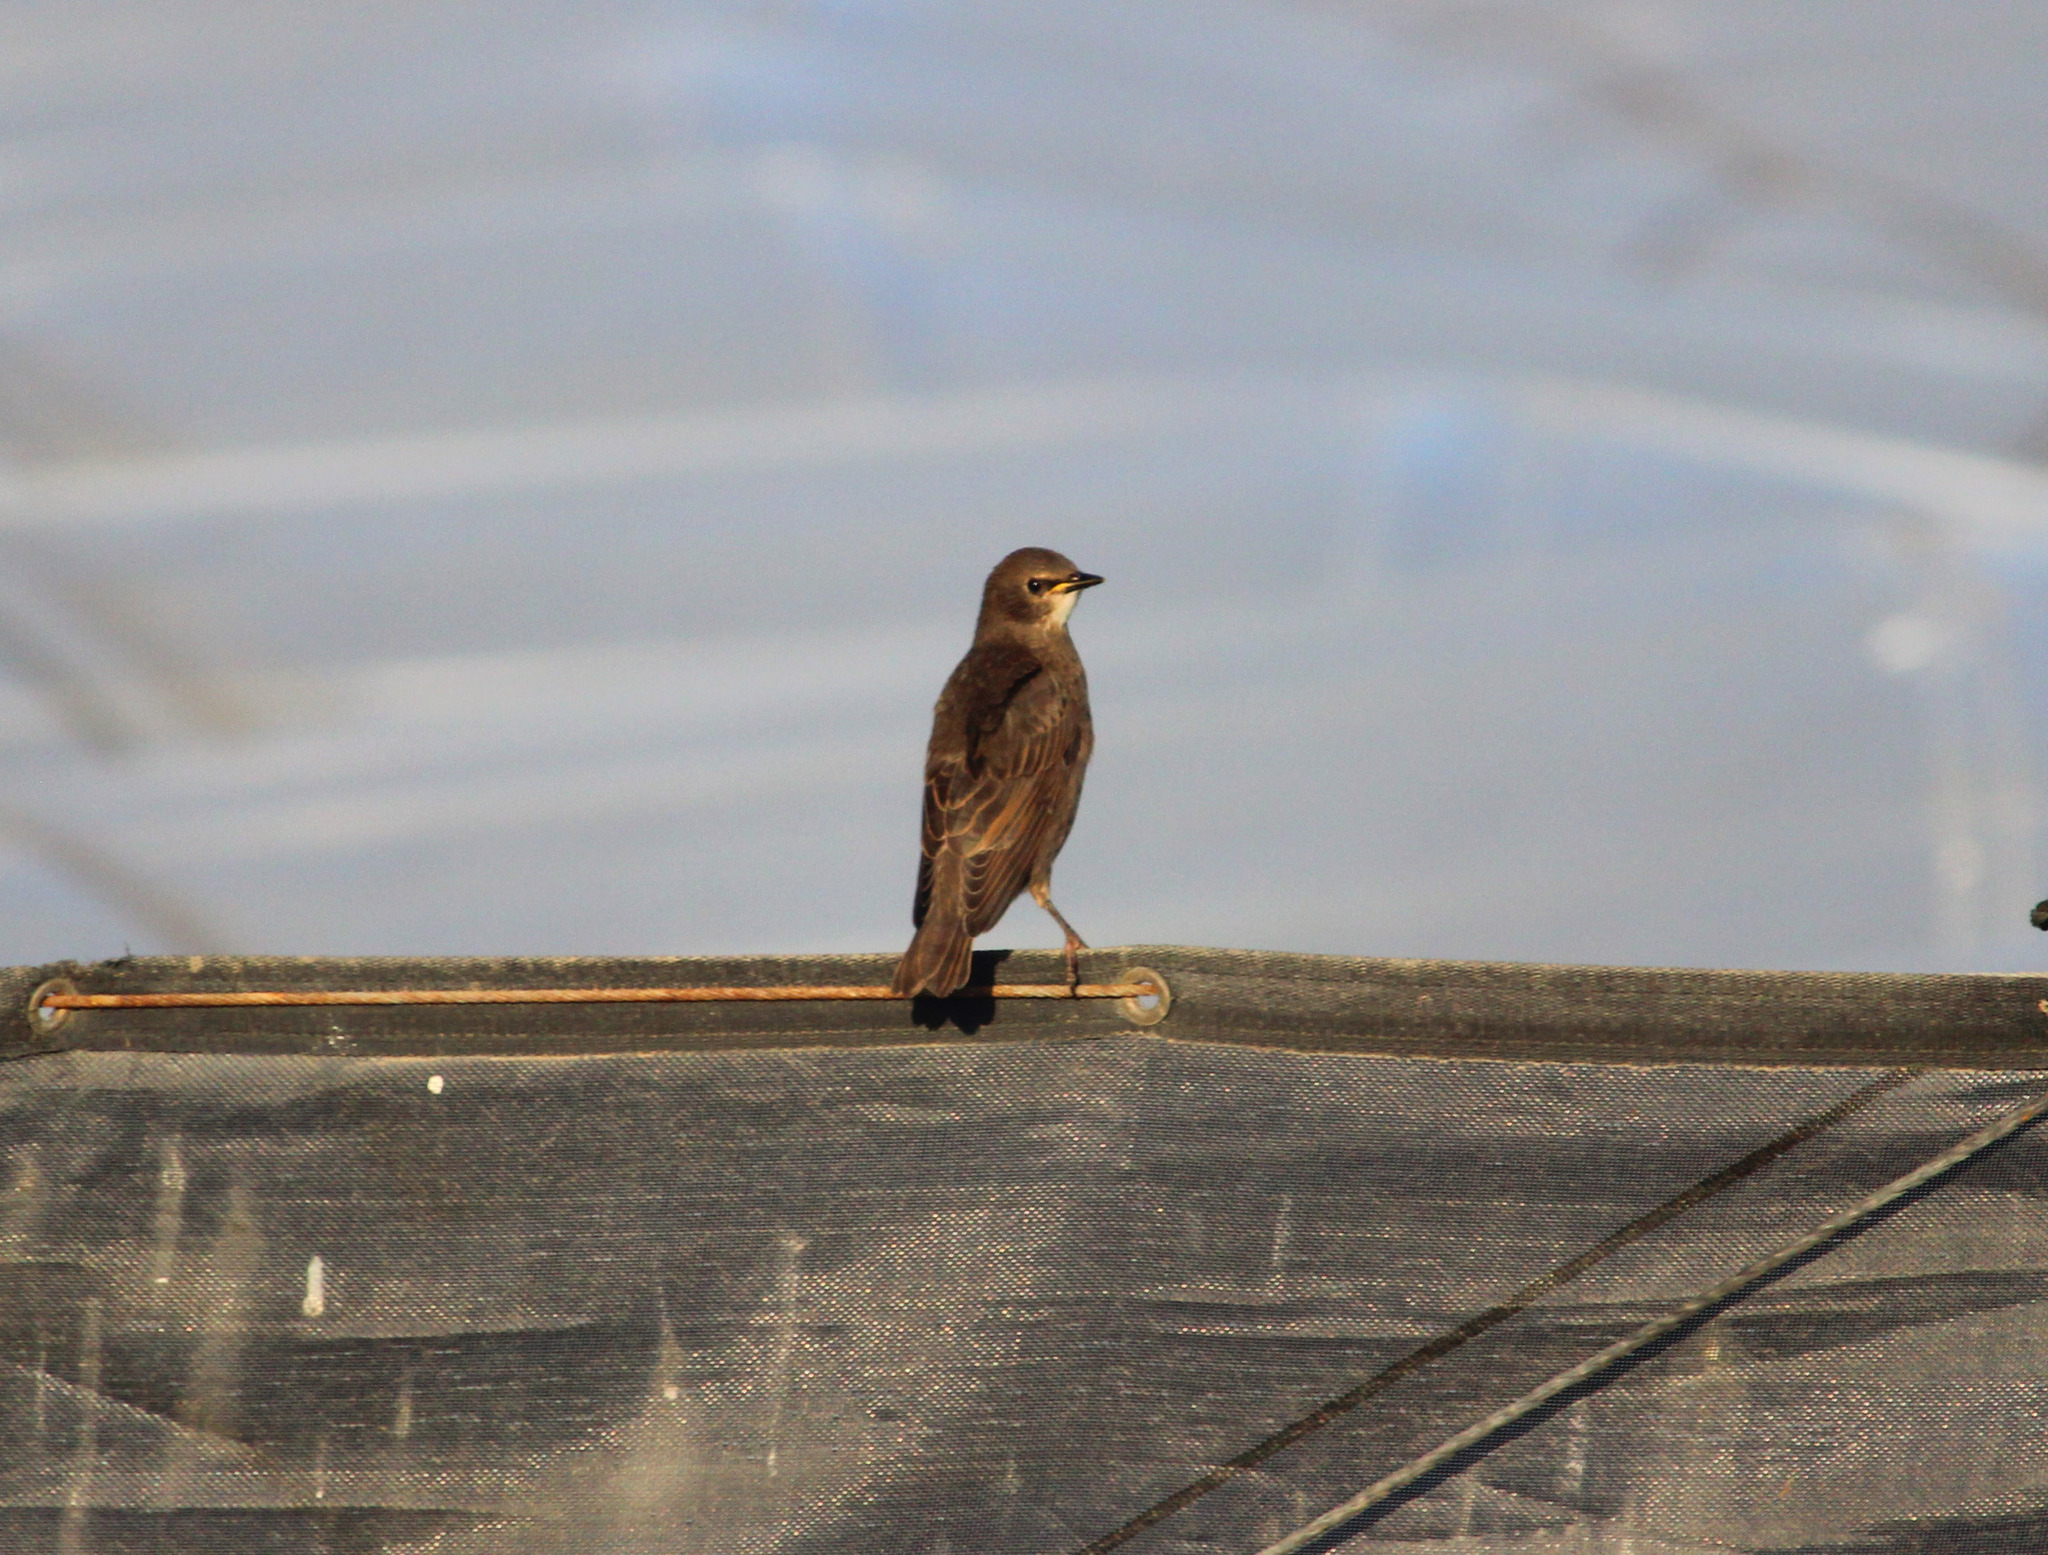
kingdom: Animalia
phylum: Chordata
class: Aves
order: Passeriformes
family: Sturnidae
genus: Sturnus
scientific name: Sturnus vulgaris
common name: Common starling
